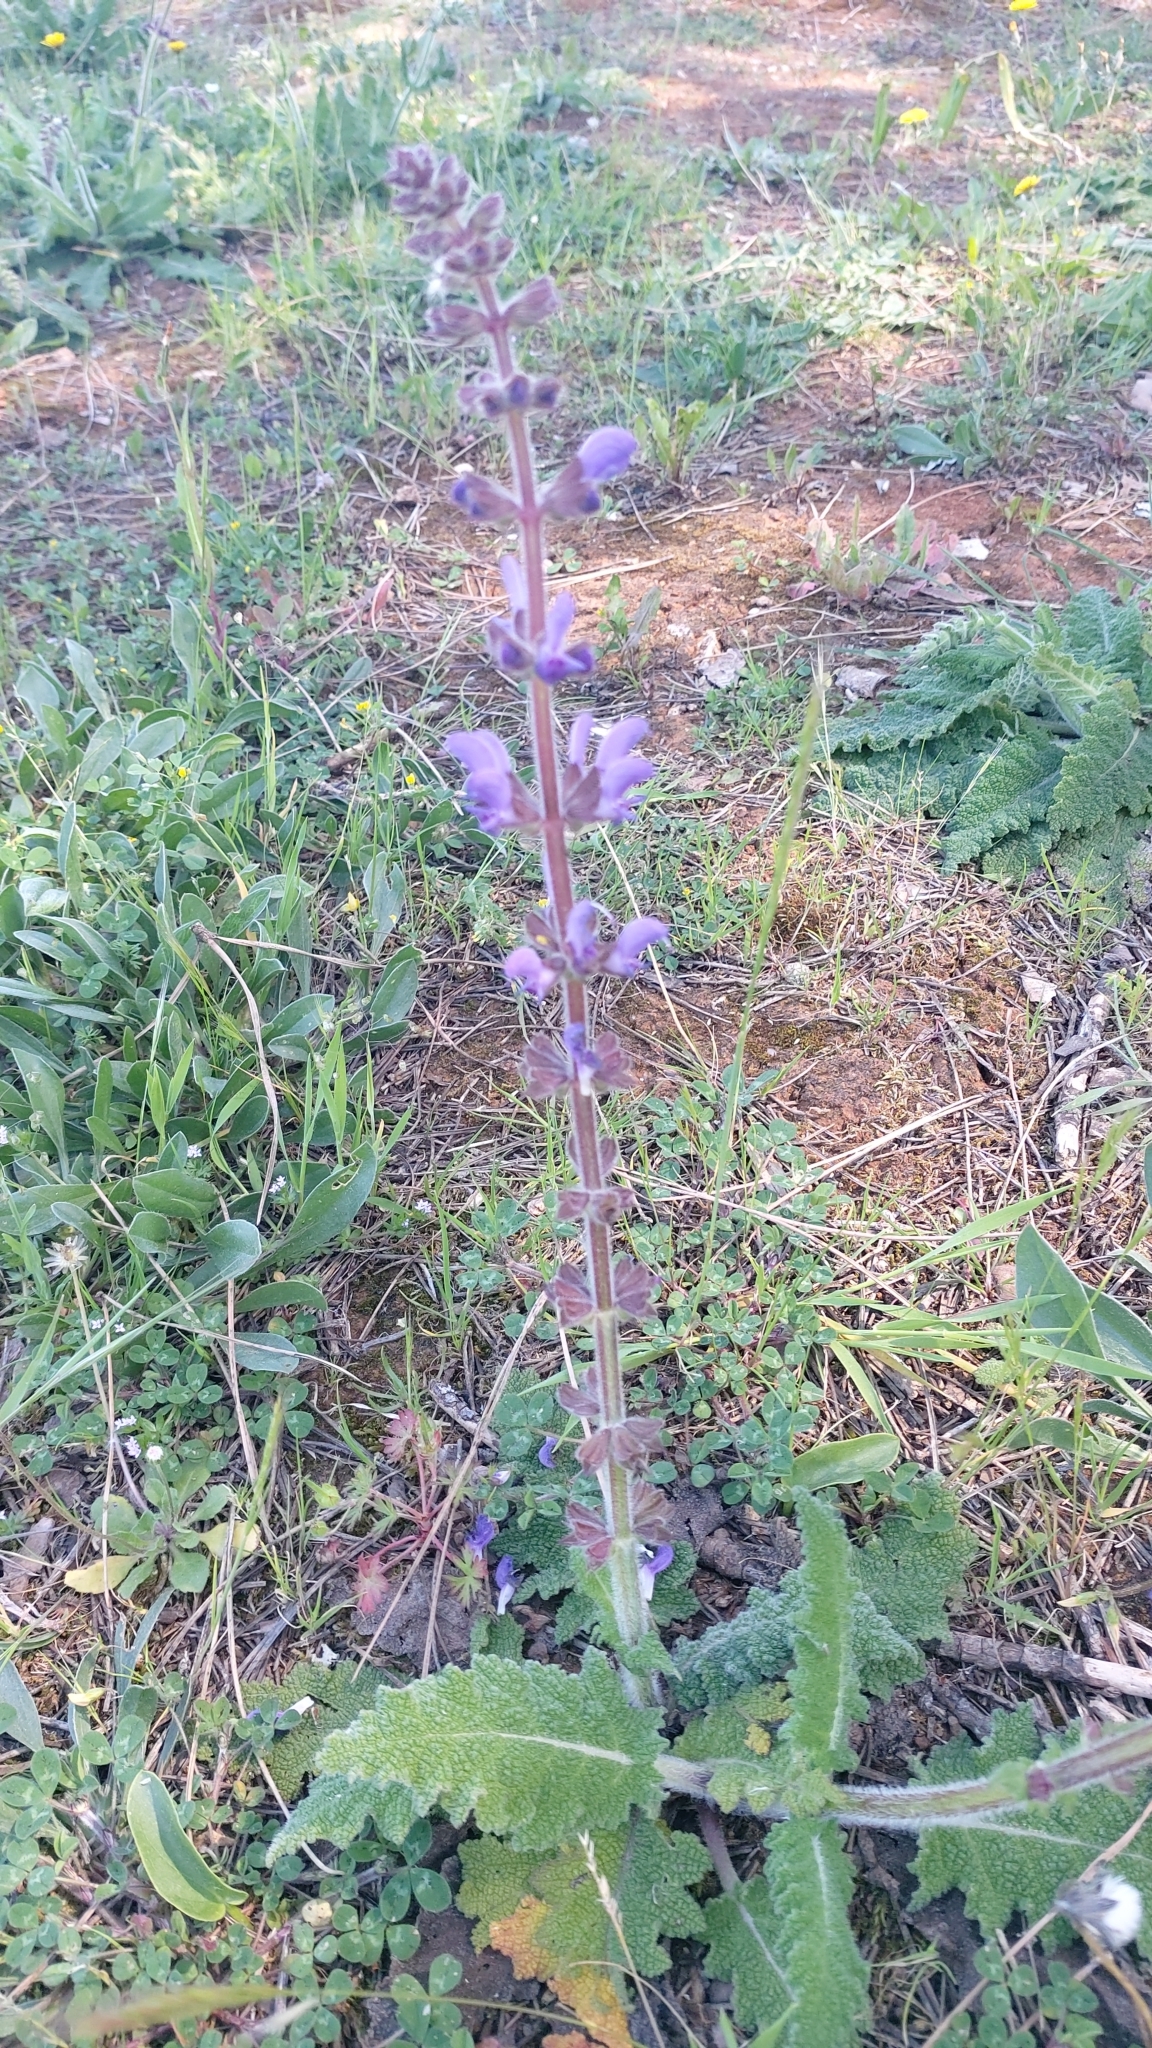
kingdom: Plantae
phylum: Tracheophyta
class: Magnoliopsida
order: Lamiales
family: Lamiaceae
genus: Salvia
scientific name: Salvia sclareoides
